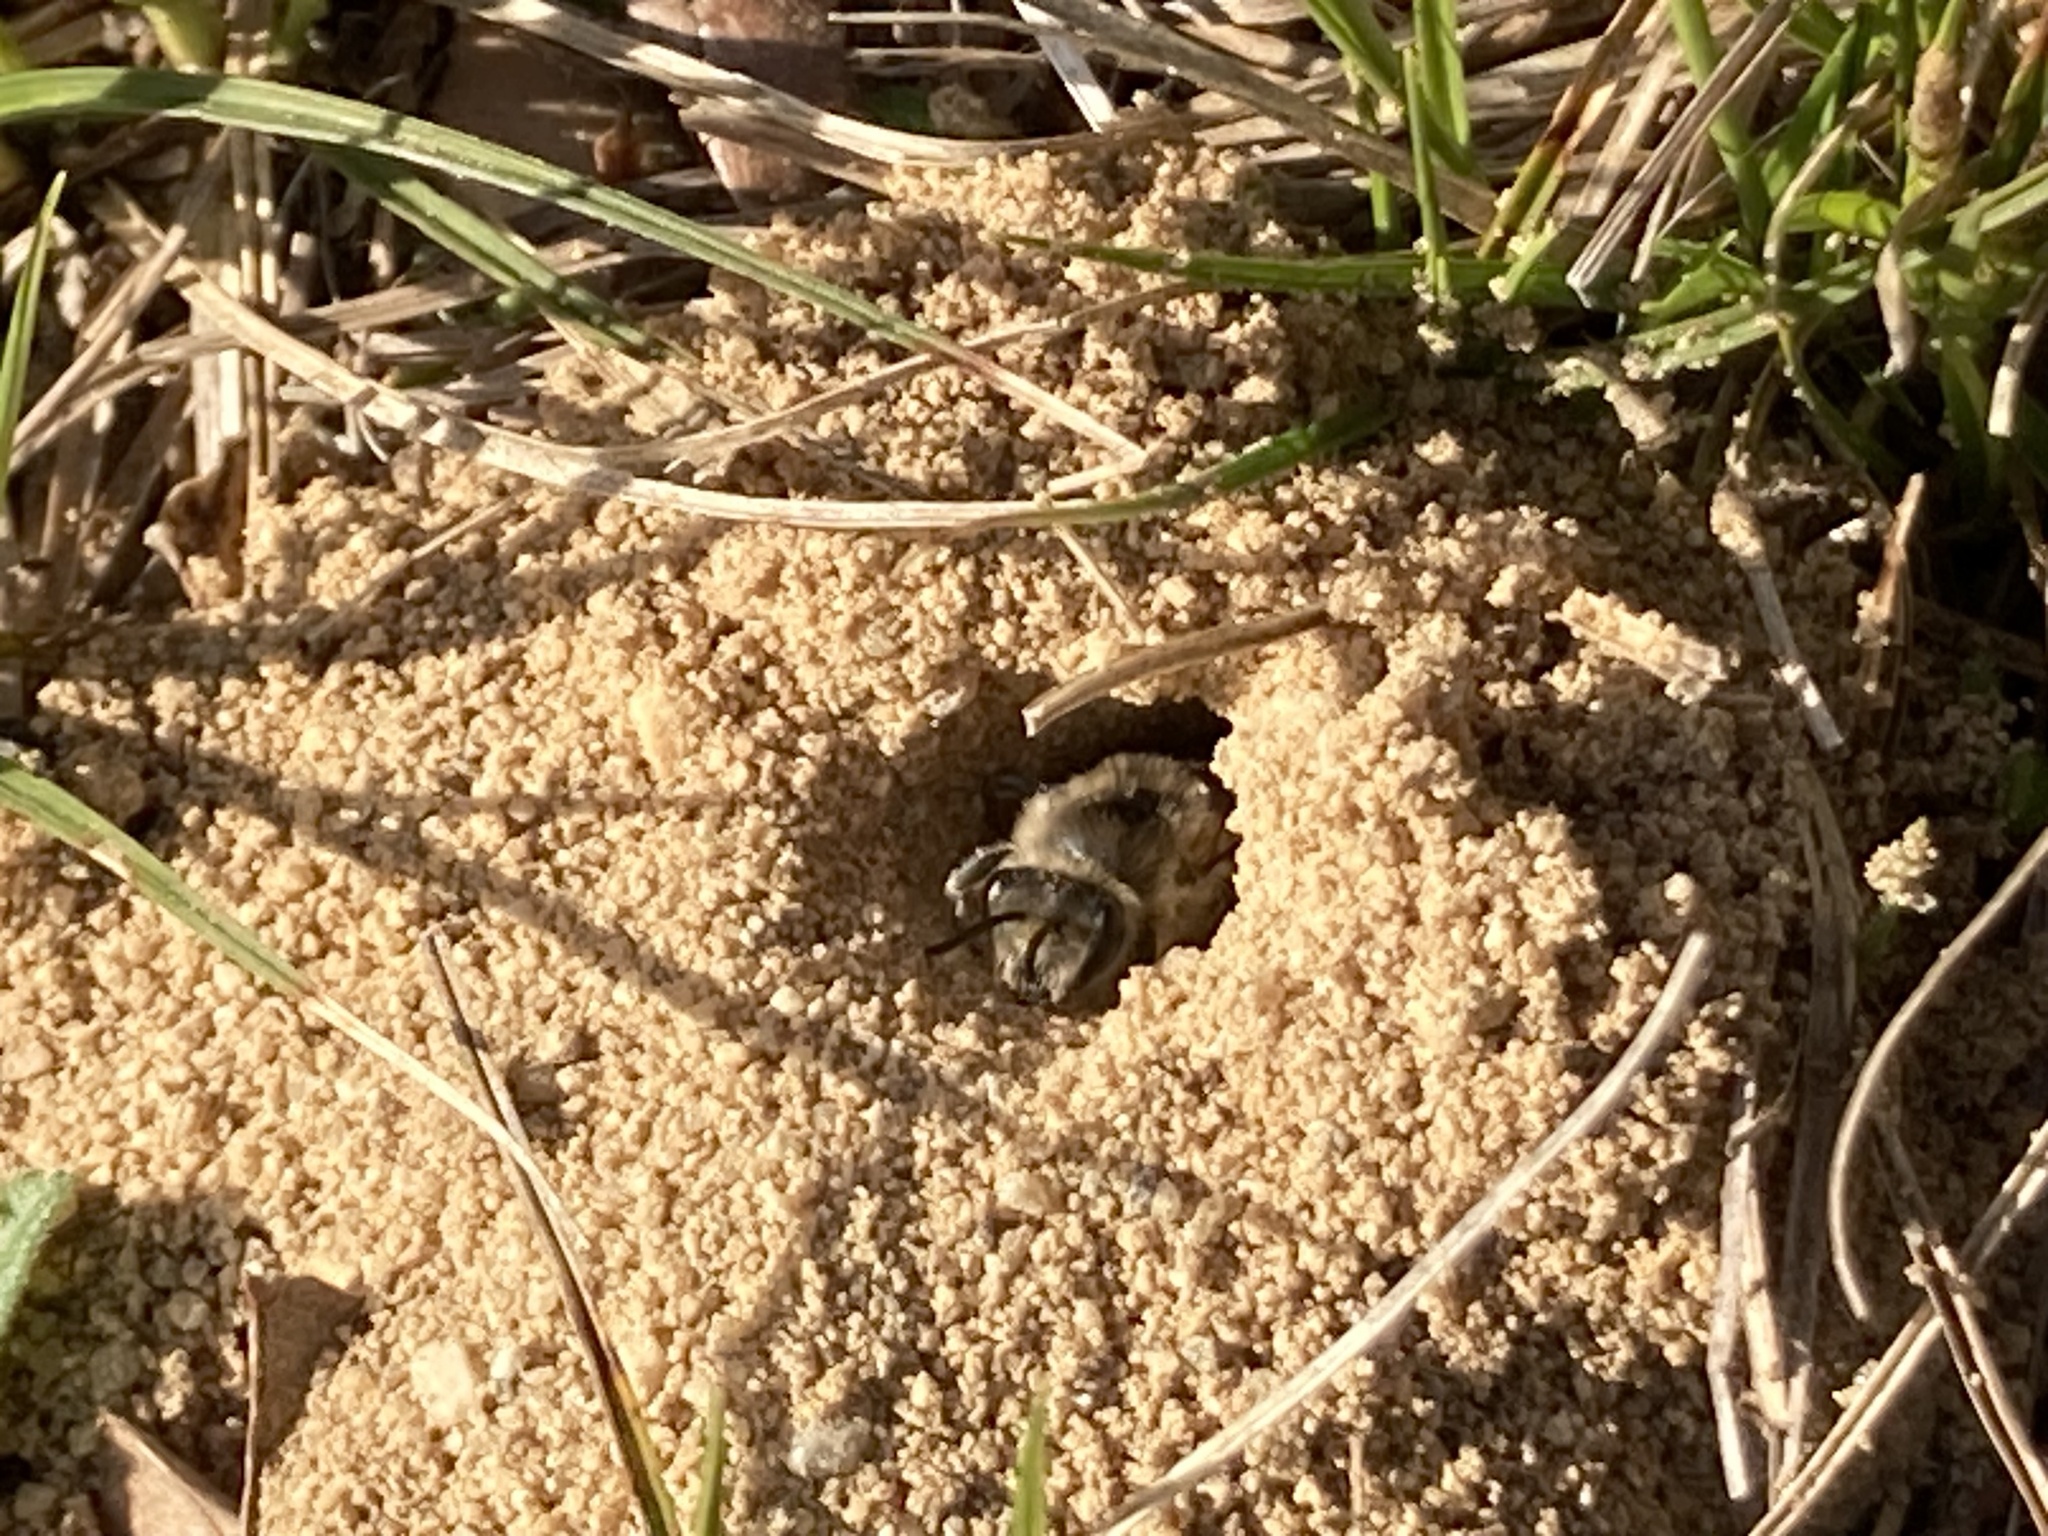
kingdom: Animalia
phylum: Arthropoda
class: Insecta
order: Hymenoptera
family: Colletidae
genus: Colletes
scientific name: Colletes inaequalis
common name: Unequal cellophane bee
